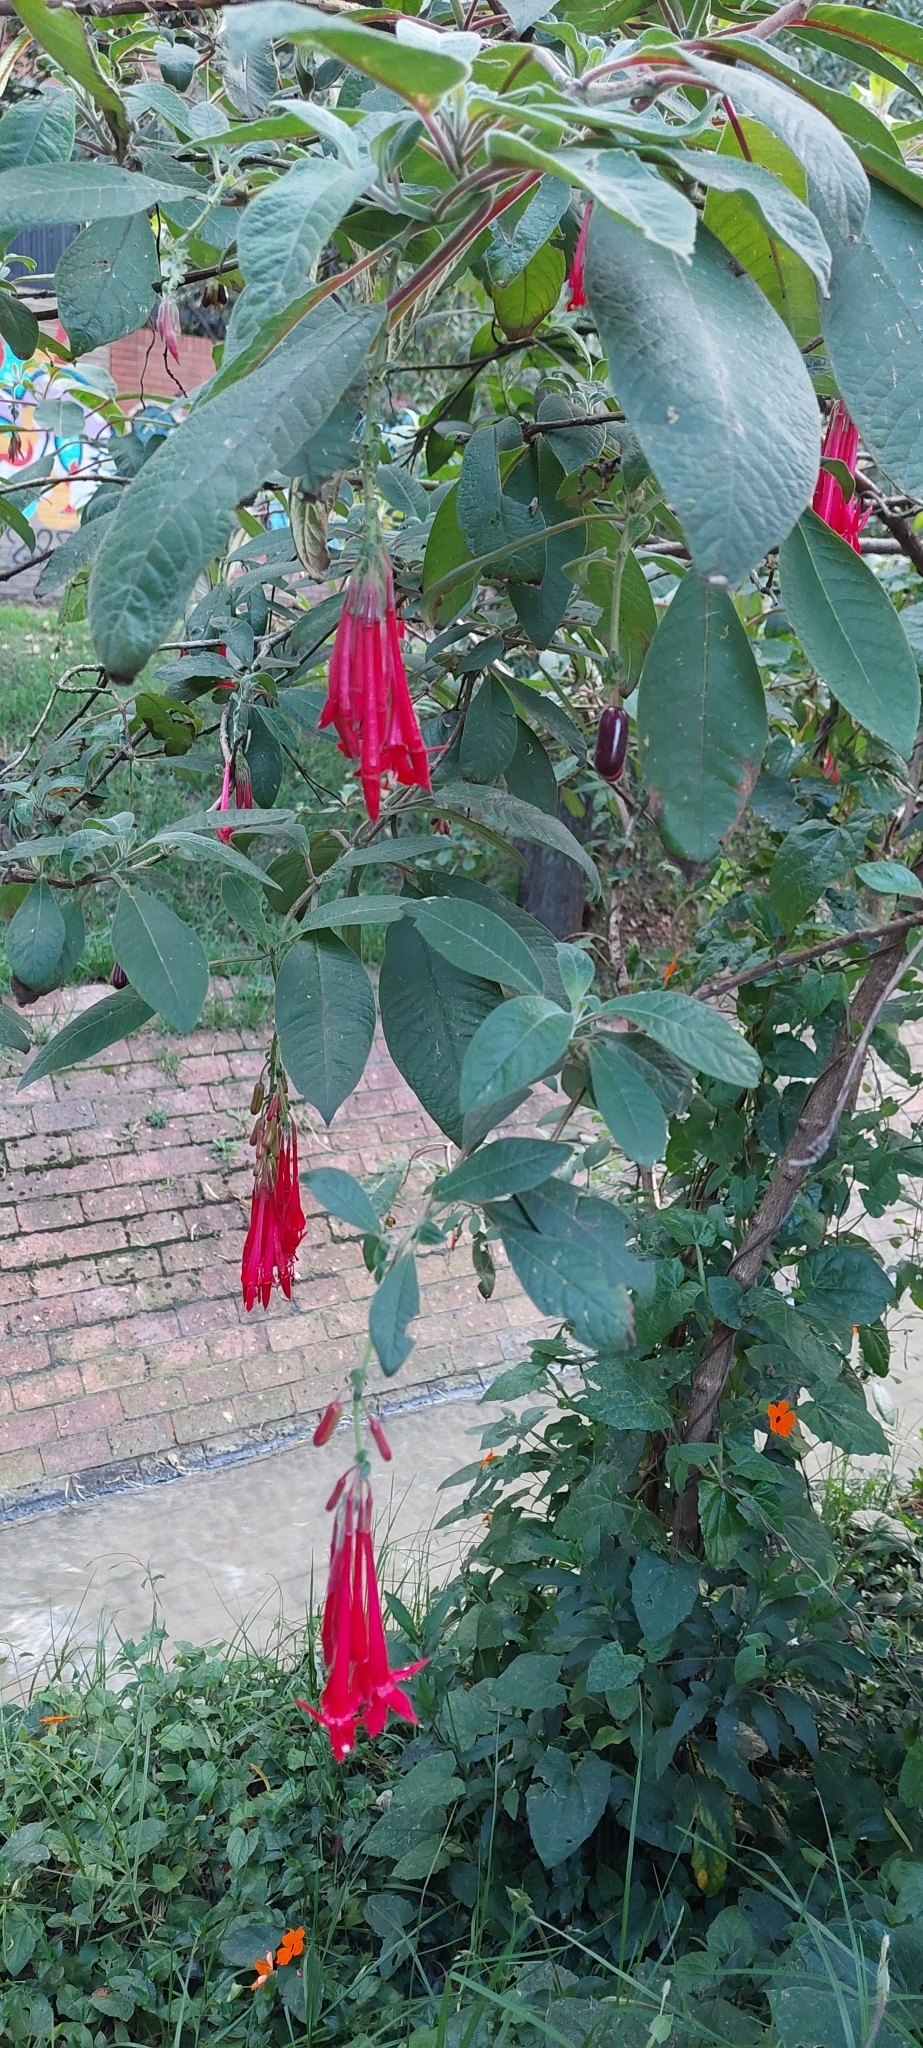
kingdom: Plantae
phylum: Tracheophyta
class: Magnoliopsida
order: Myrtales
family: Onagraceae
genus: Fuchsia
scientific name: Fuchsia boliviana
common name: Bolivian fuchsia
